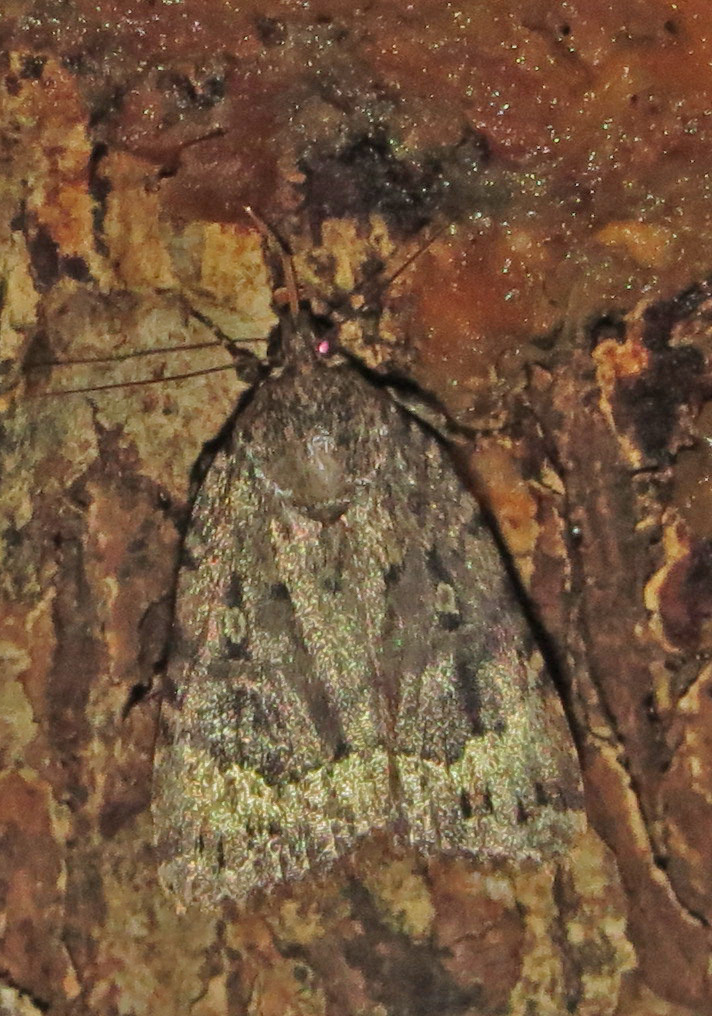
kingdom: Animalia
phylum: Arthropoda
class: Insecta
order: Lepidoptera
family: Noctuidae
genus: Amphipyra
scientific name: Amphipyra pyramidoides
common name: American copper underwing
